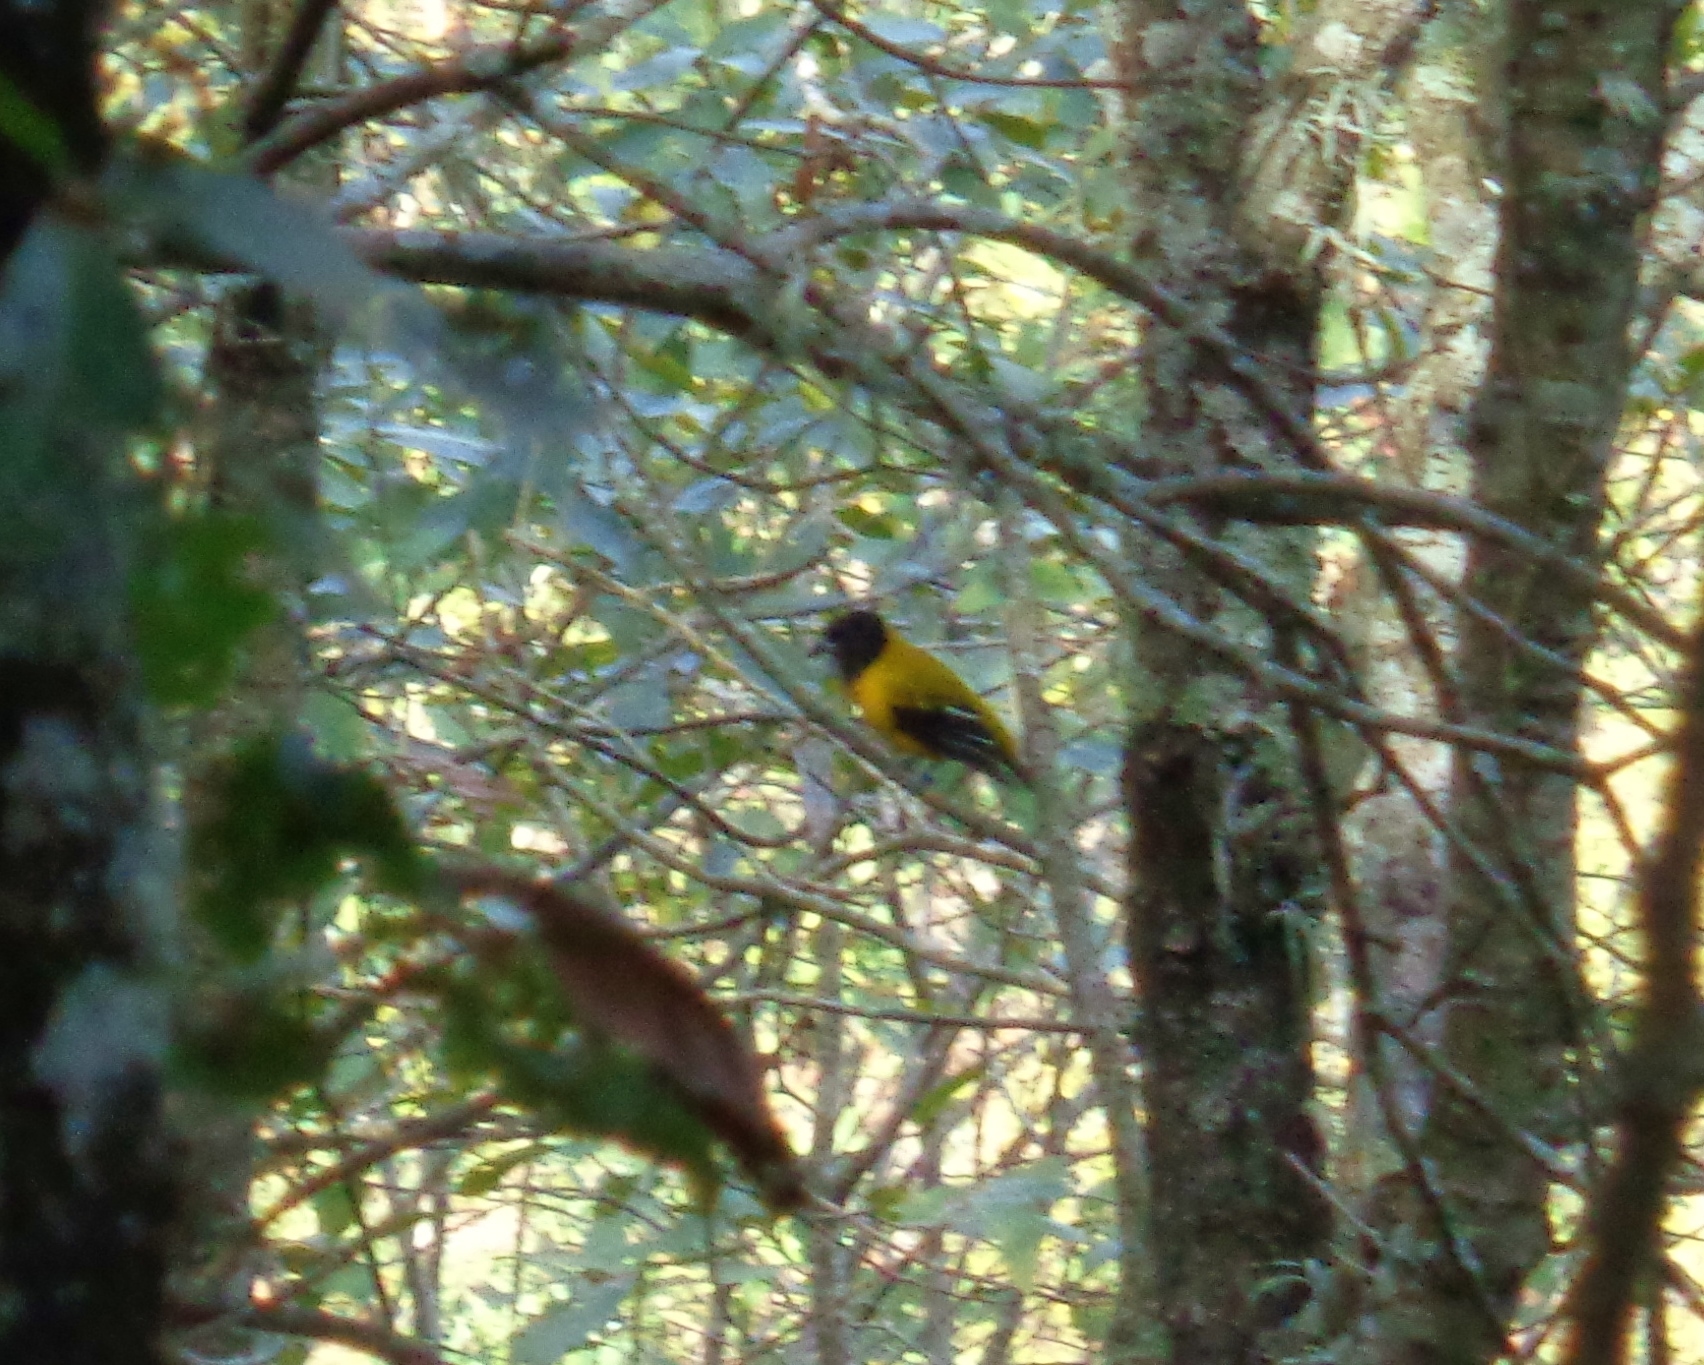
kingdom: Animalia
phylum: Chordata
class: Aves
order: Passeriformes
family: Icteridae
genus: Icterus
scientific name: Icterus graduacauda
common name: Audubon's oriole
